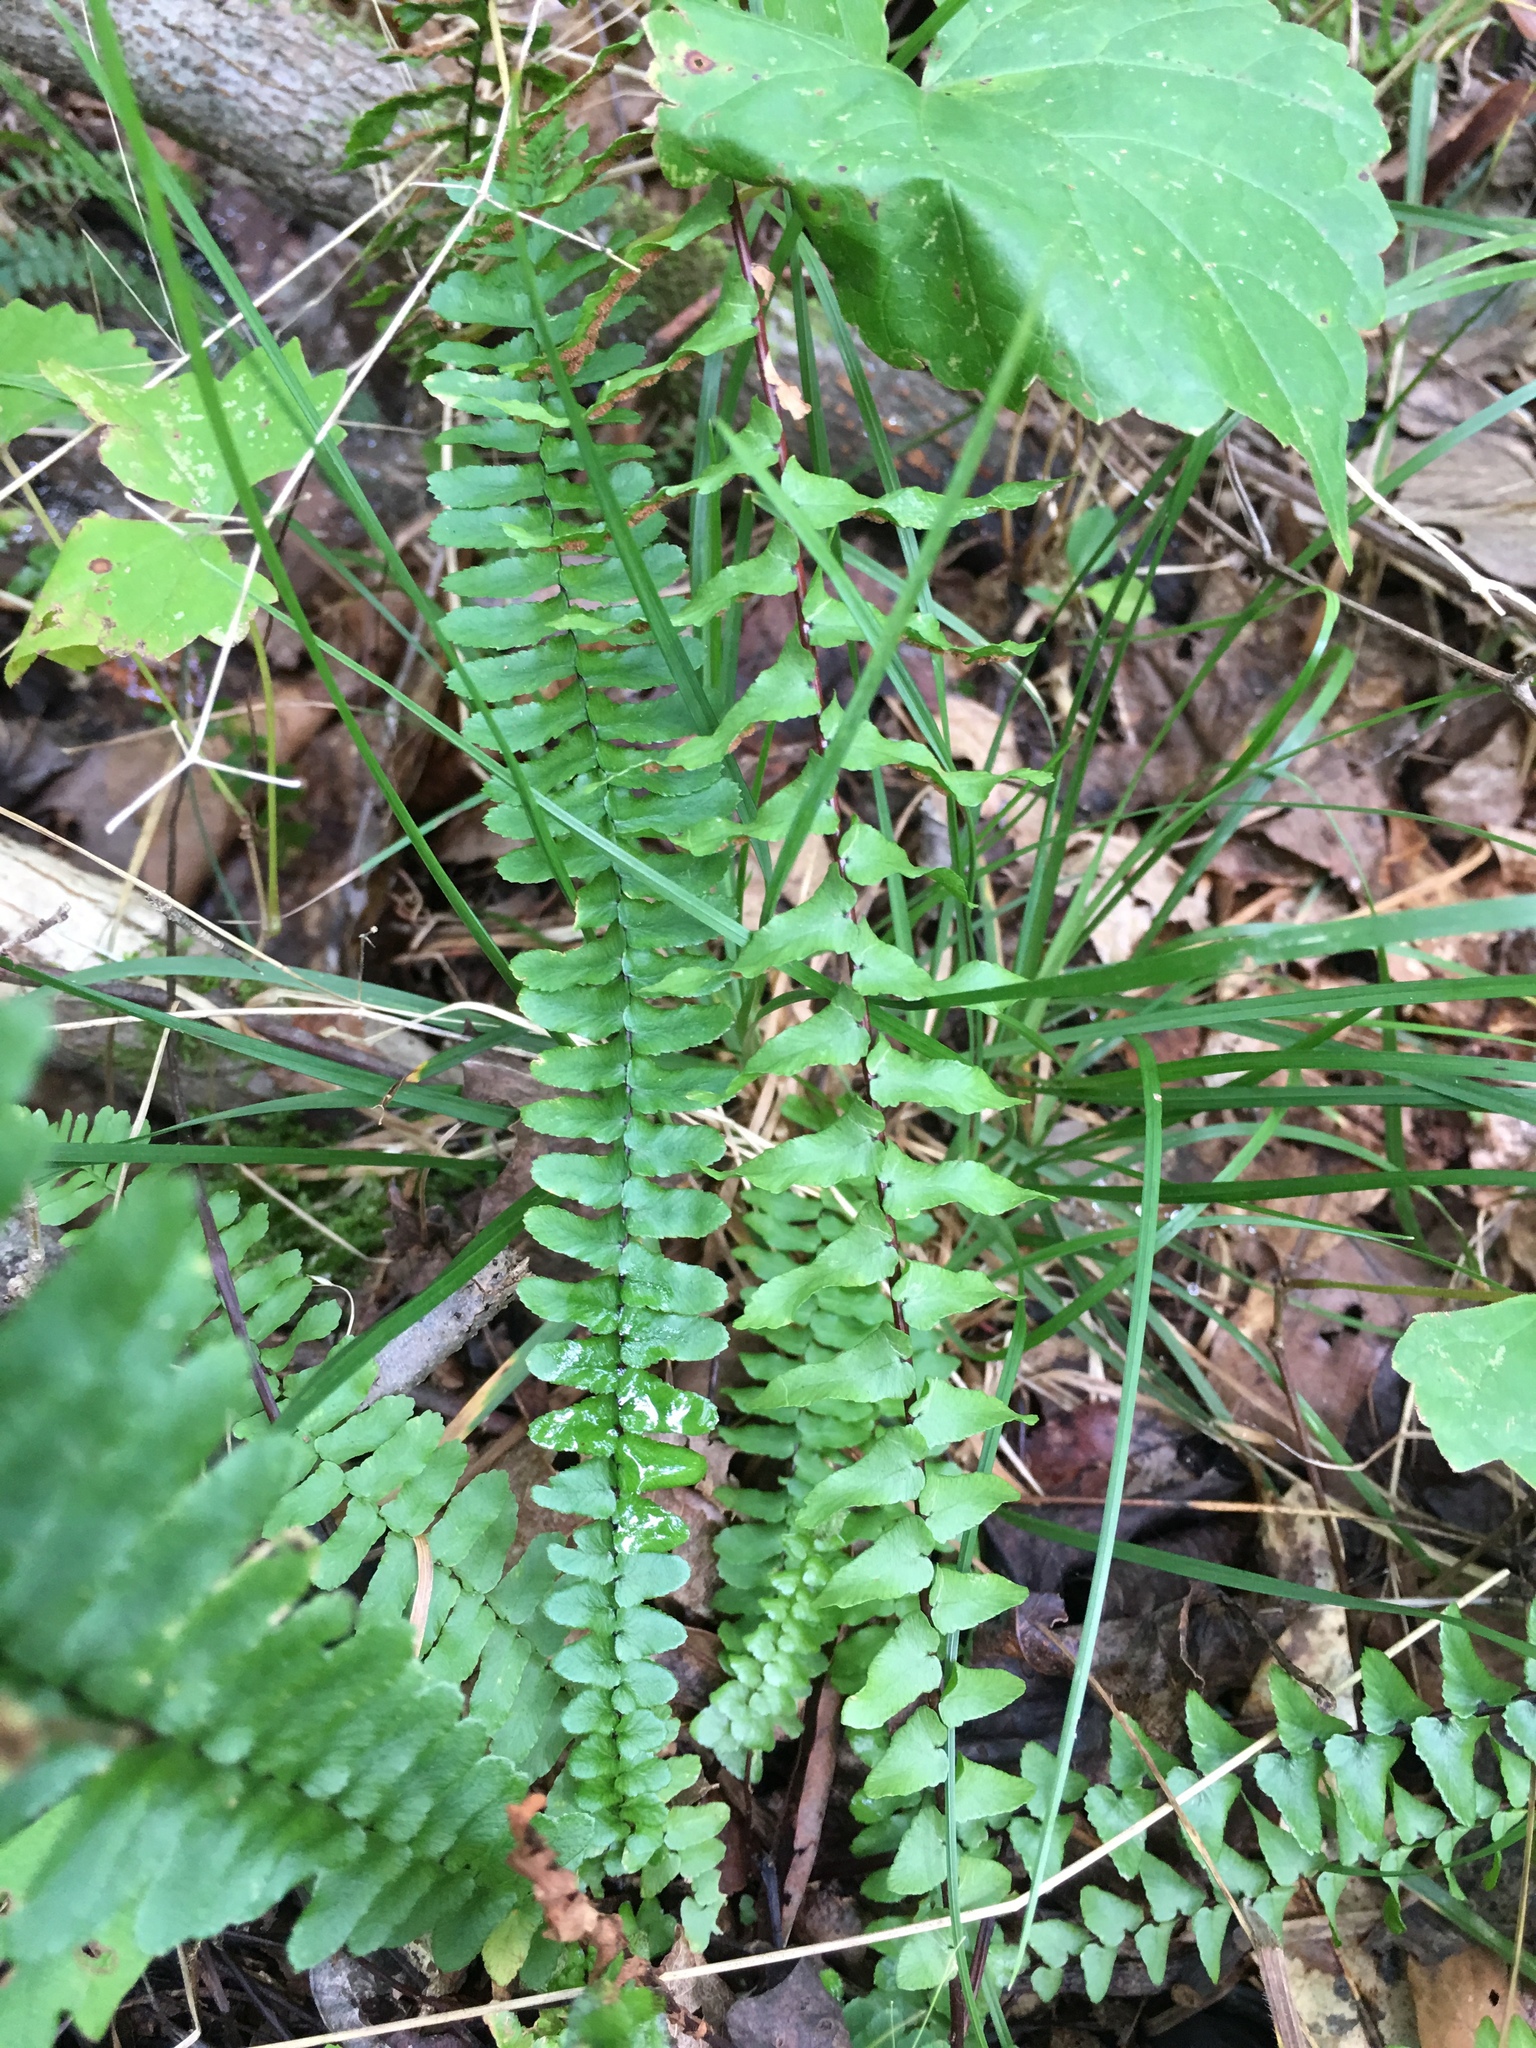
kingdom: Plantae
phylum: Tracheophyta
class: Polypodiopsida
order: Polypodiales
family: Aspleniaceae
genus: Asplenium
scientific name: Asplenium platyneuron
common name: Ebony spleenwort
